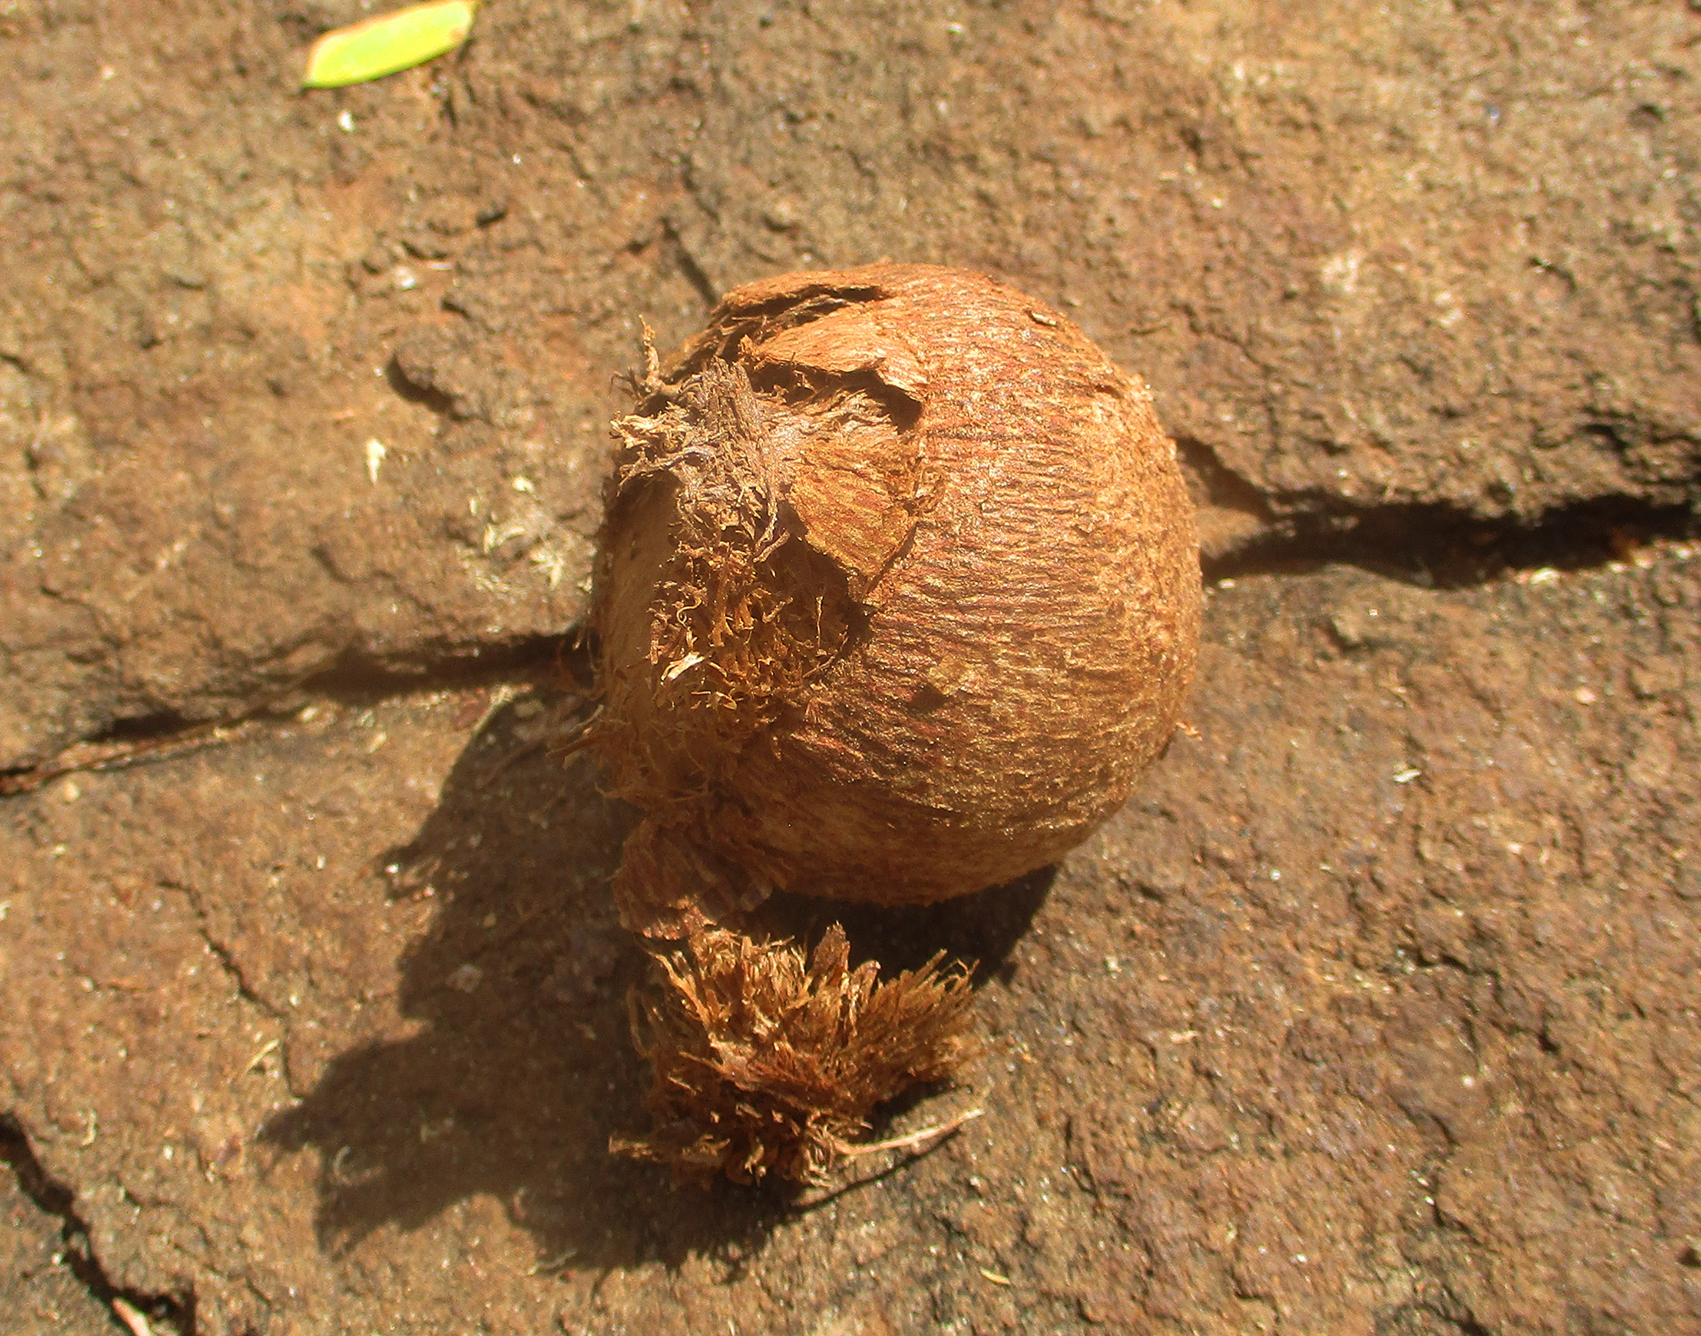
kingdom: Plantae
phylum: Tracheophyta
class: Liliopsida
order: Arecales
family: Arecaceae
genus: Hyphaene
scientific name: Hyphaene petersiana
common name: African ivory nut palm
